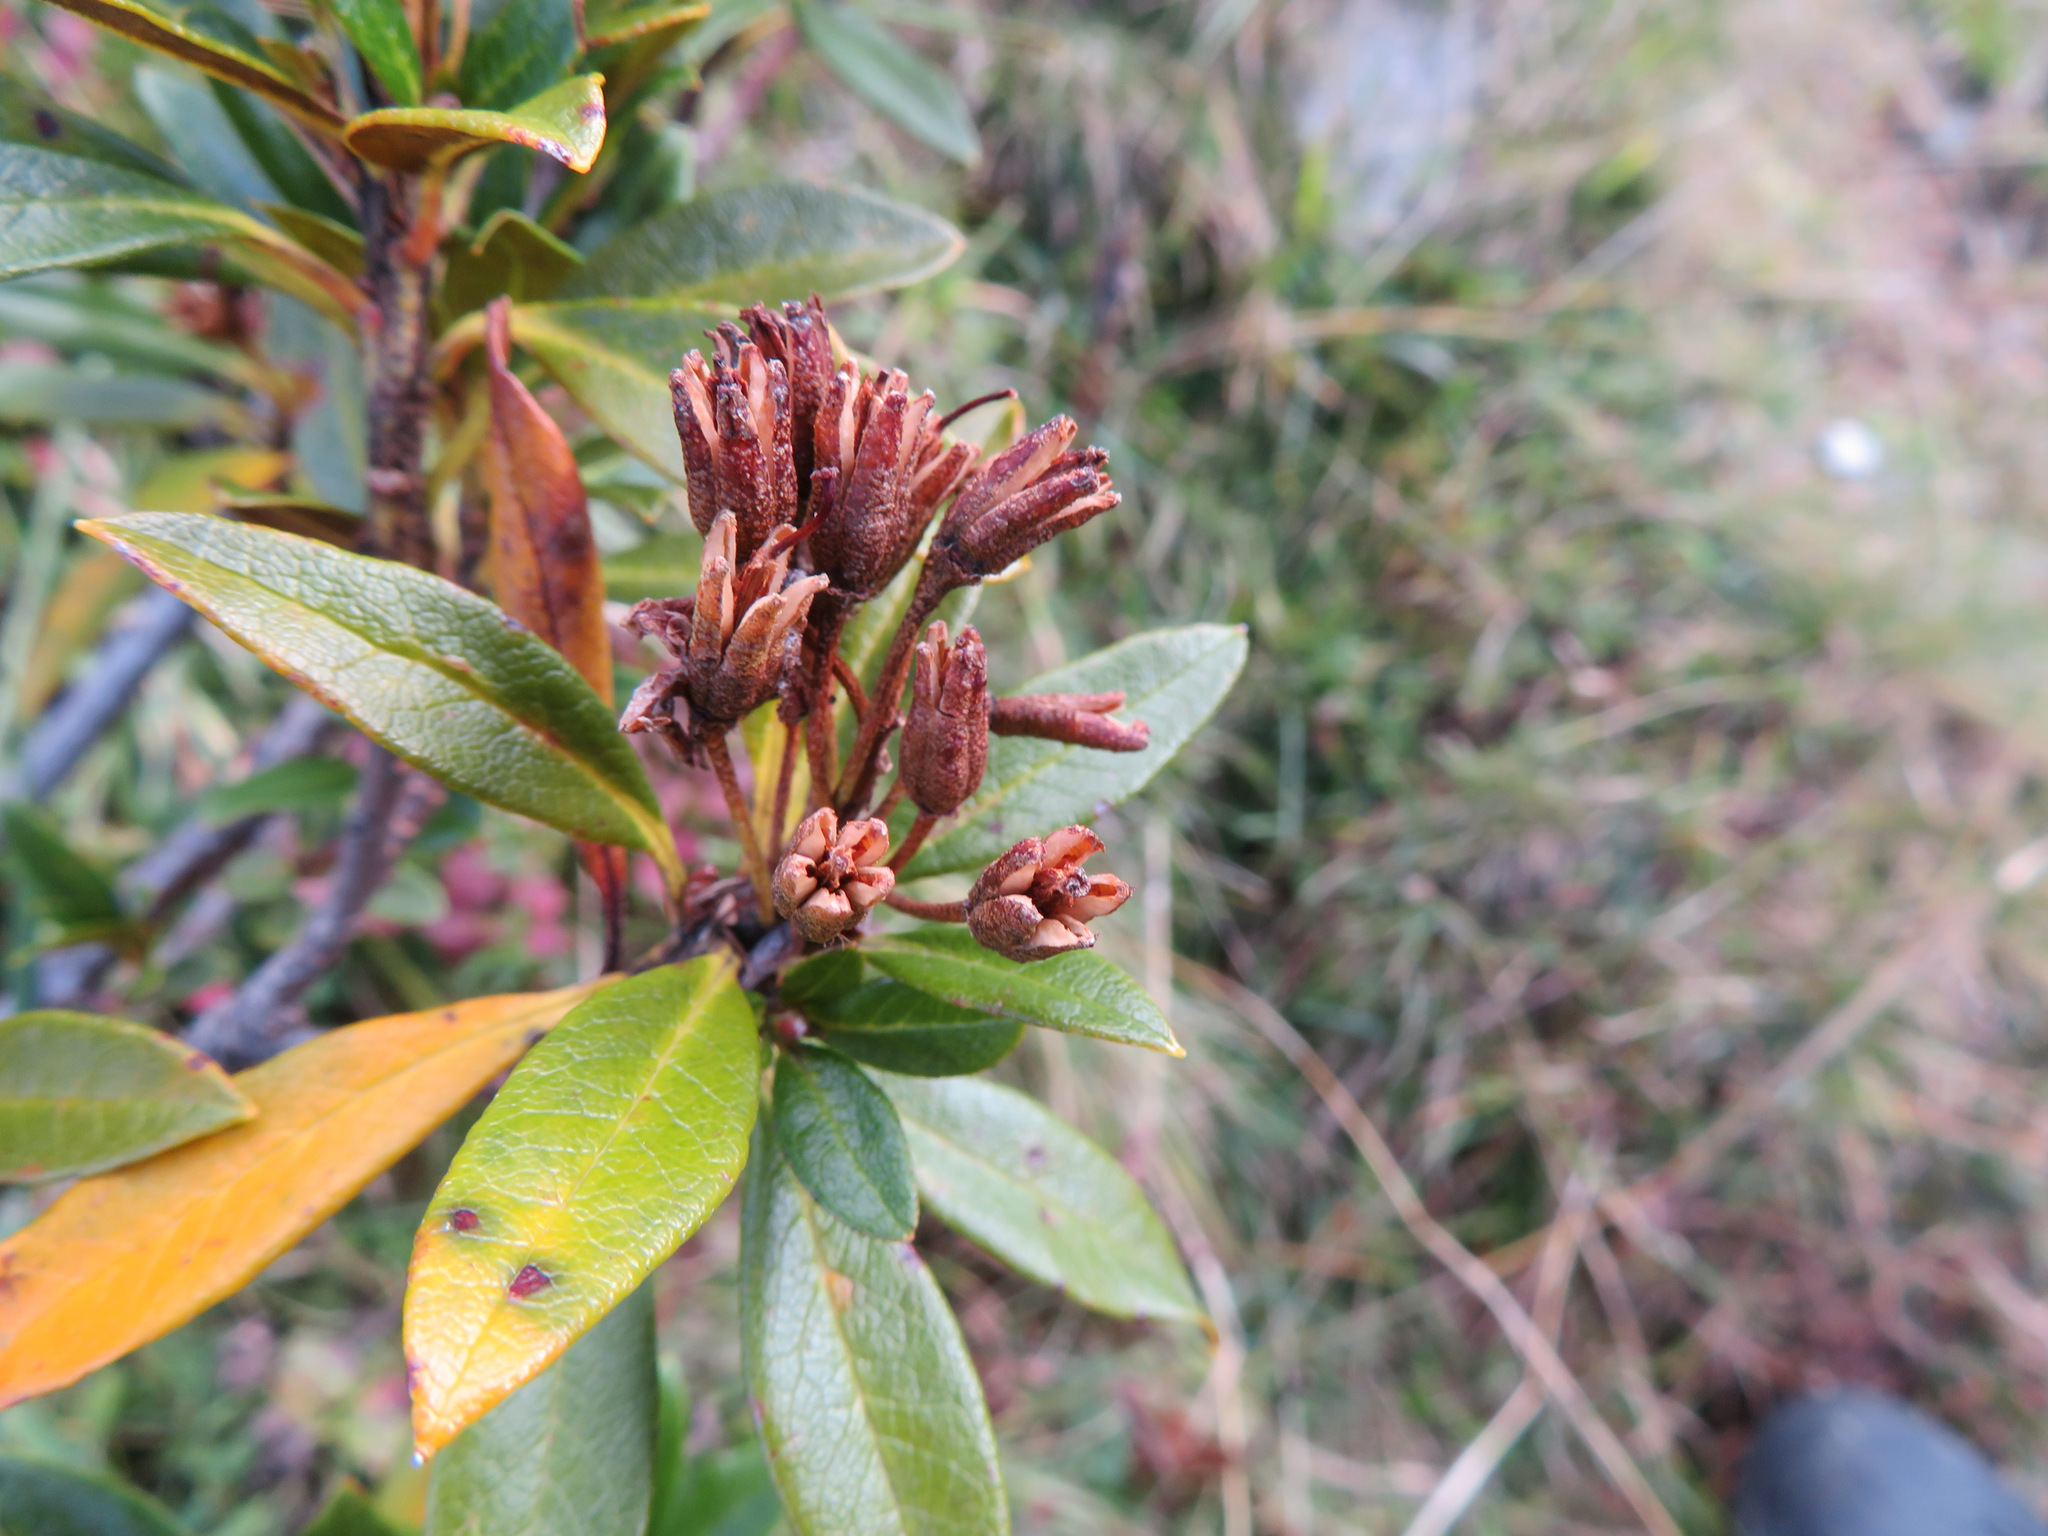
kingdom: Plantae
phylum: Tracheophyta
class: Magnoliopsida
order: Ericales
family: Ericaceae
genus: Rhododendron
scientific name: Rhododendron ferrugineum
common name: Alpenrose
